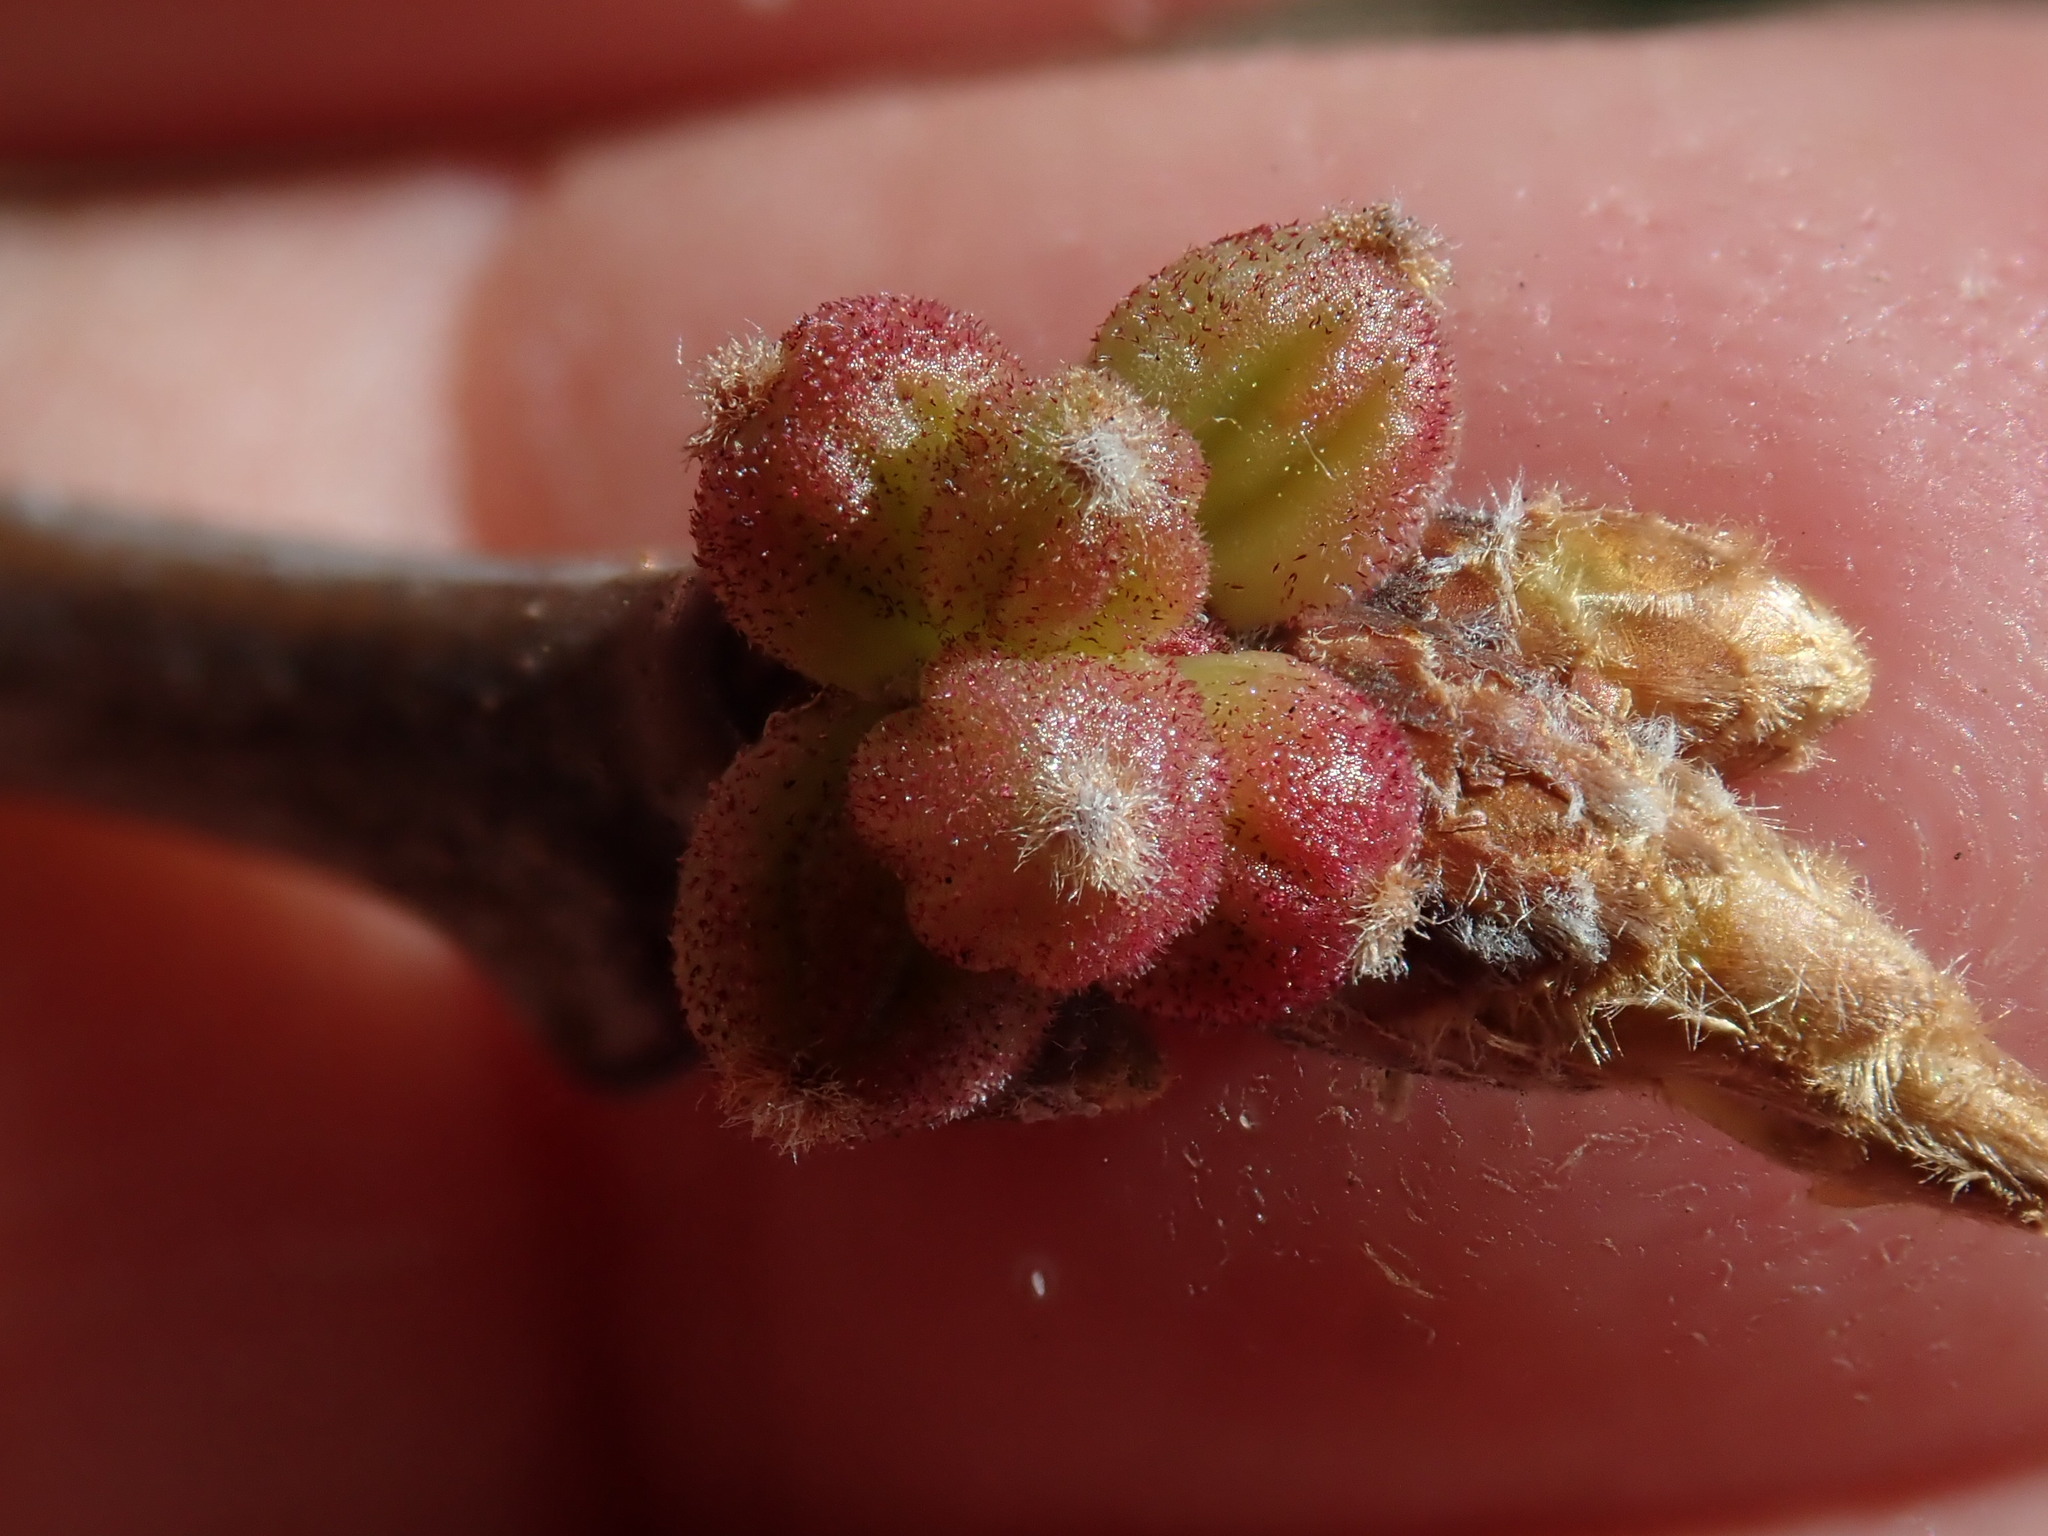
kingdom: Animalia
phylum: Arthropoda
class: Insecta
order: Hymenoptera
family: Cynipidae
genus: Andricus
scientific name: Andricus coronatus
